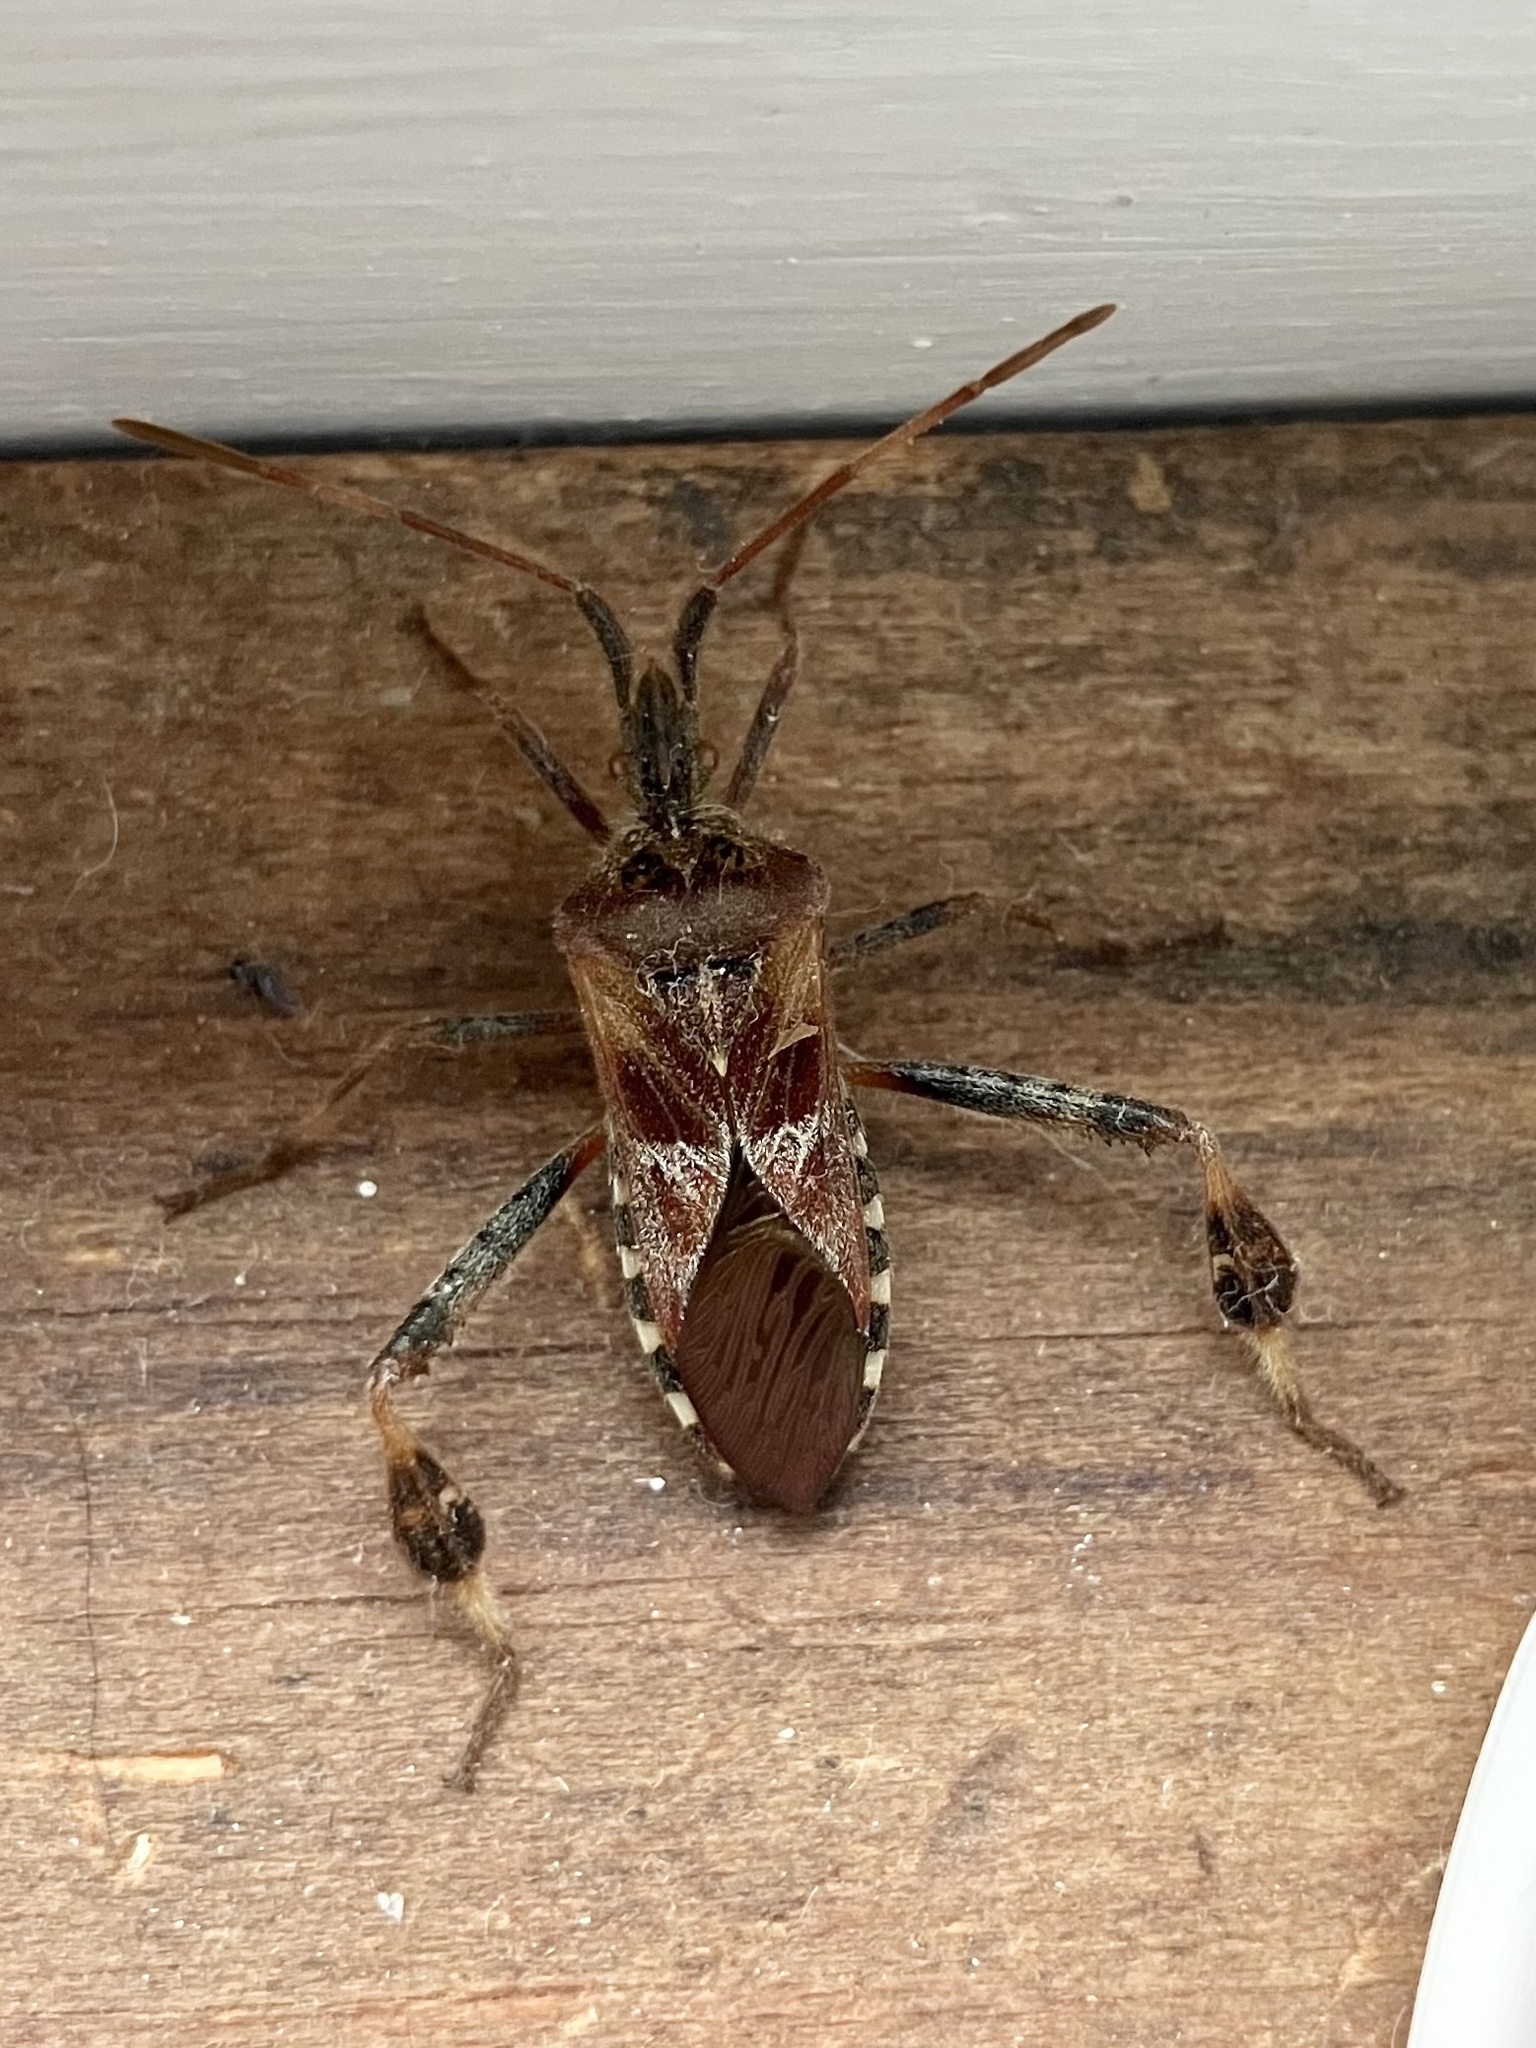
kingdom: Animalia
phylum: Arthropoda
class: Insecta
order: Hemiptera
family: Coreidae
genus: Leptoglossus
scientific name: Leptoglossus occidentalis
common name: Western conifer-seed bug
